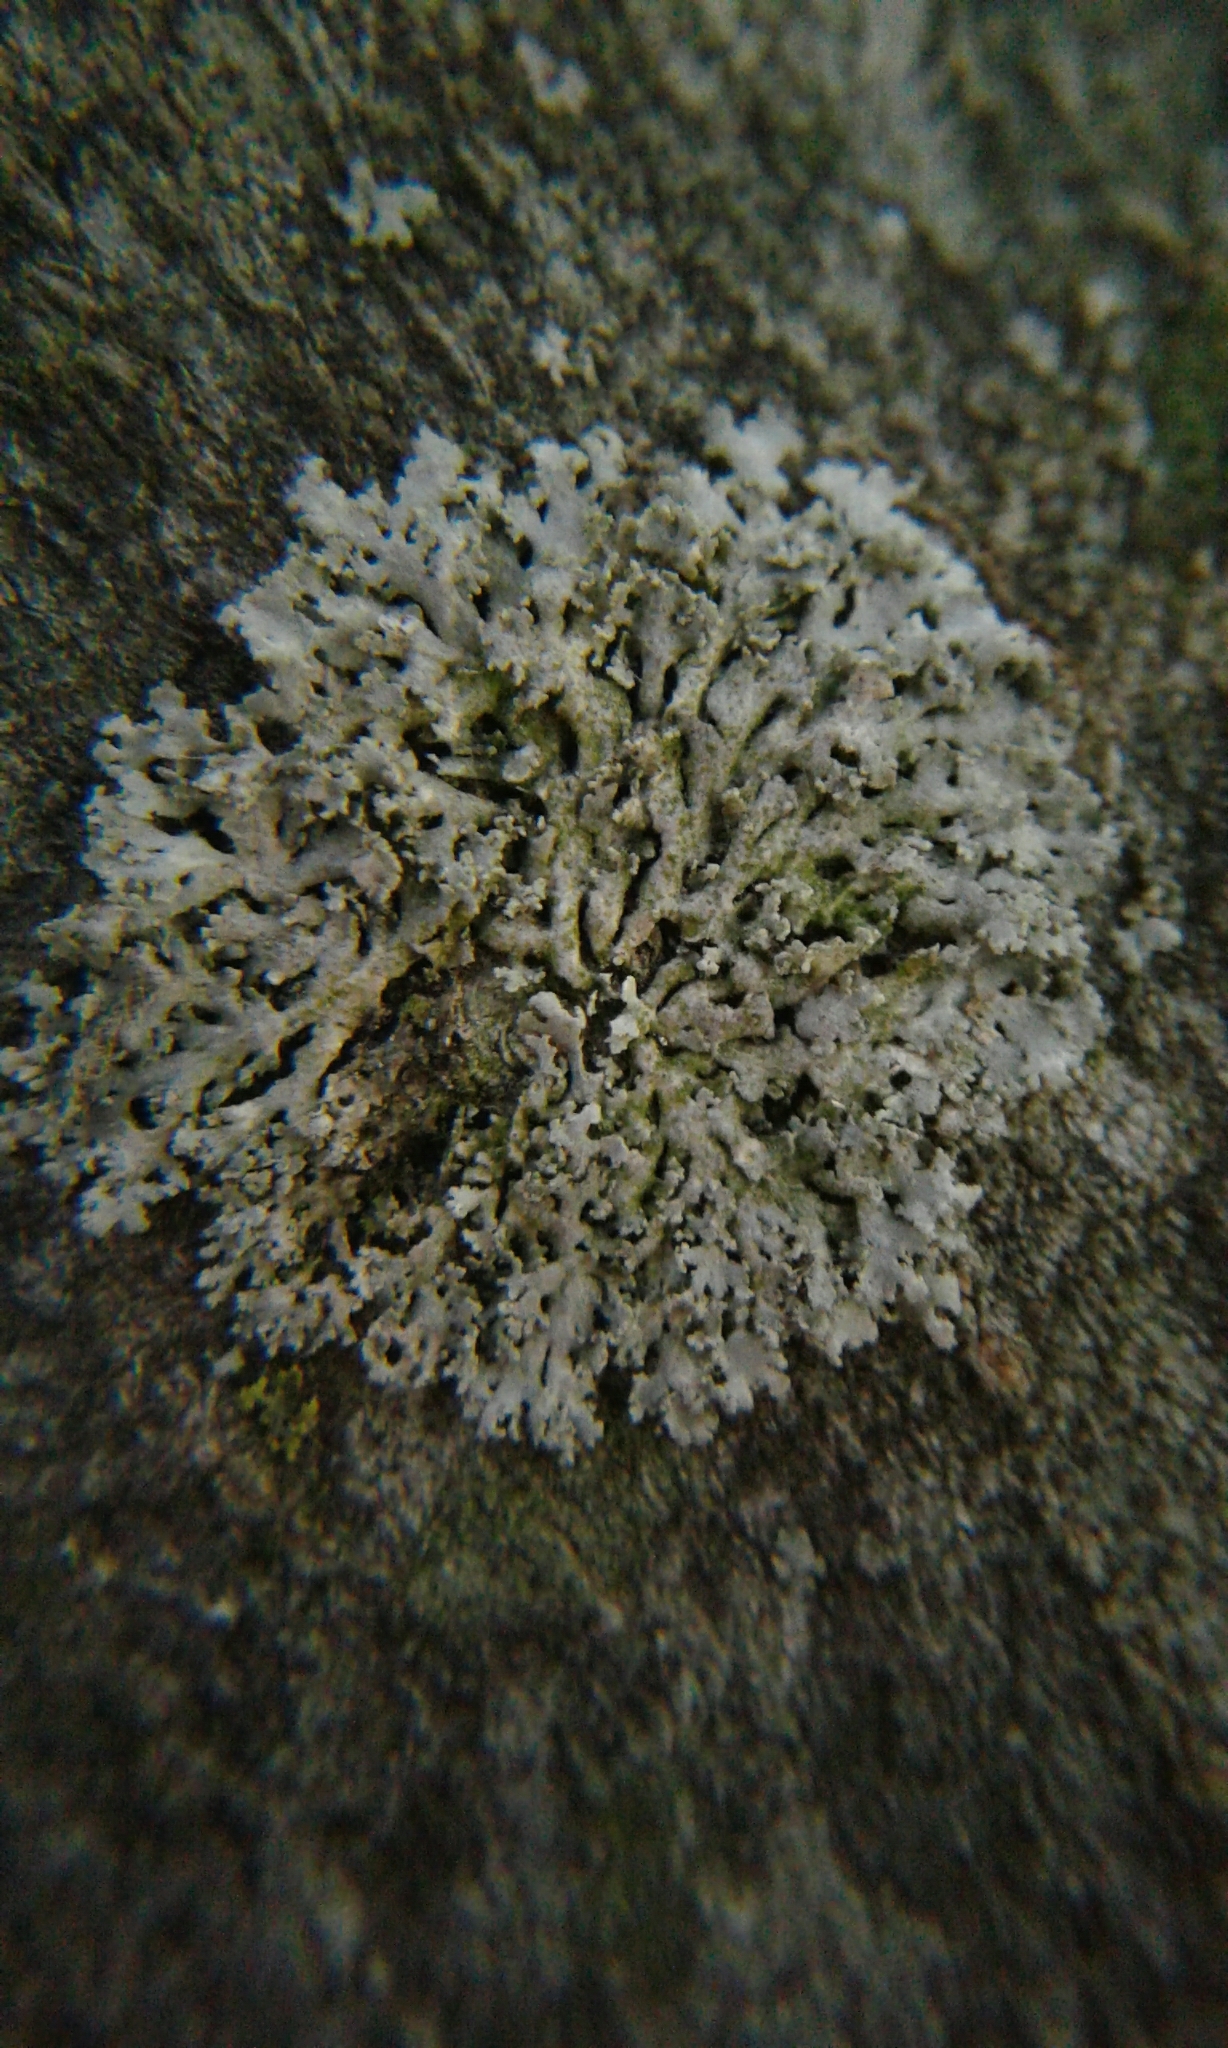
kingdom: Fungi
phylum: Ascomycota
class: Lecanoromycetes
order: Caliciales
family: Physciaceae
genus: Physconia
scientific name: Physconia detersa
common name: Bottlebrush frost lichen
